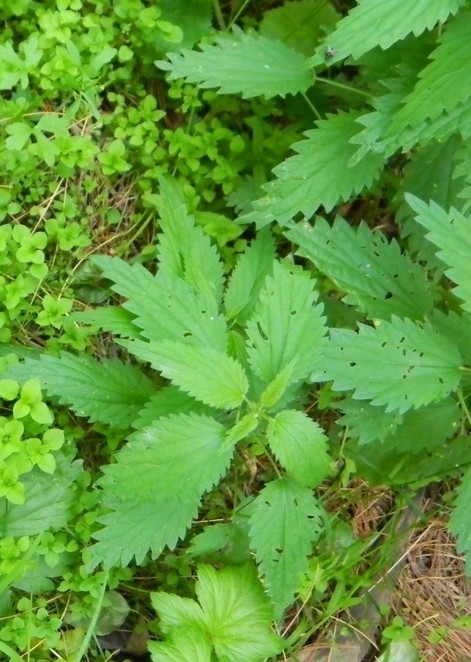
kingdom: Plantae
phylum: Tracheophyta
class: Magnoliopsida
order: Rosales
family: Urticaceae
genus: Urtica
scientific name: Urtica dioica
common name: Common nettle
